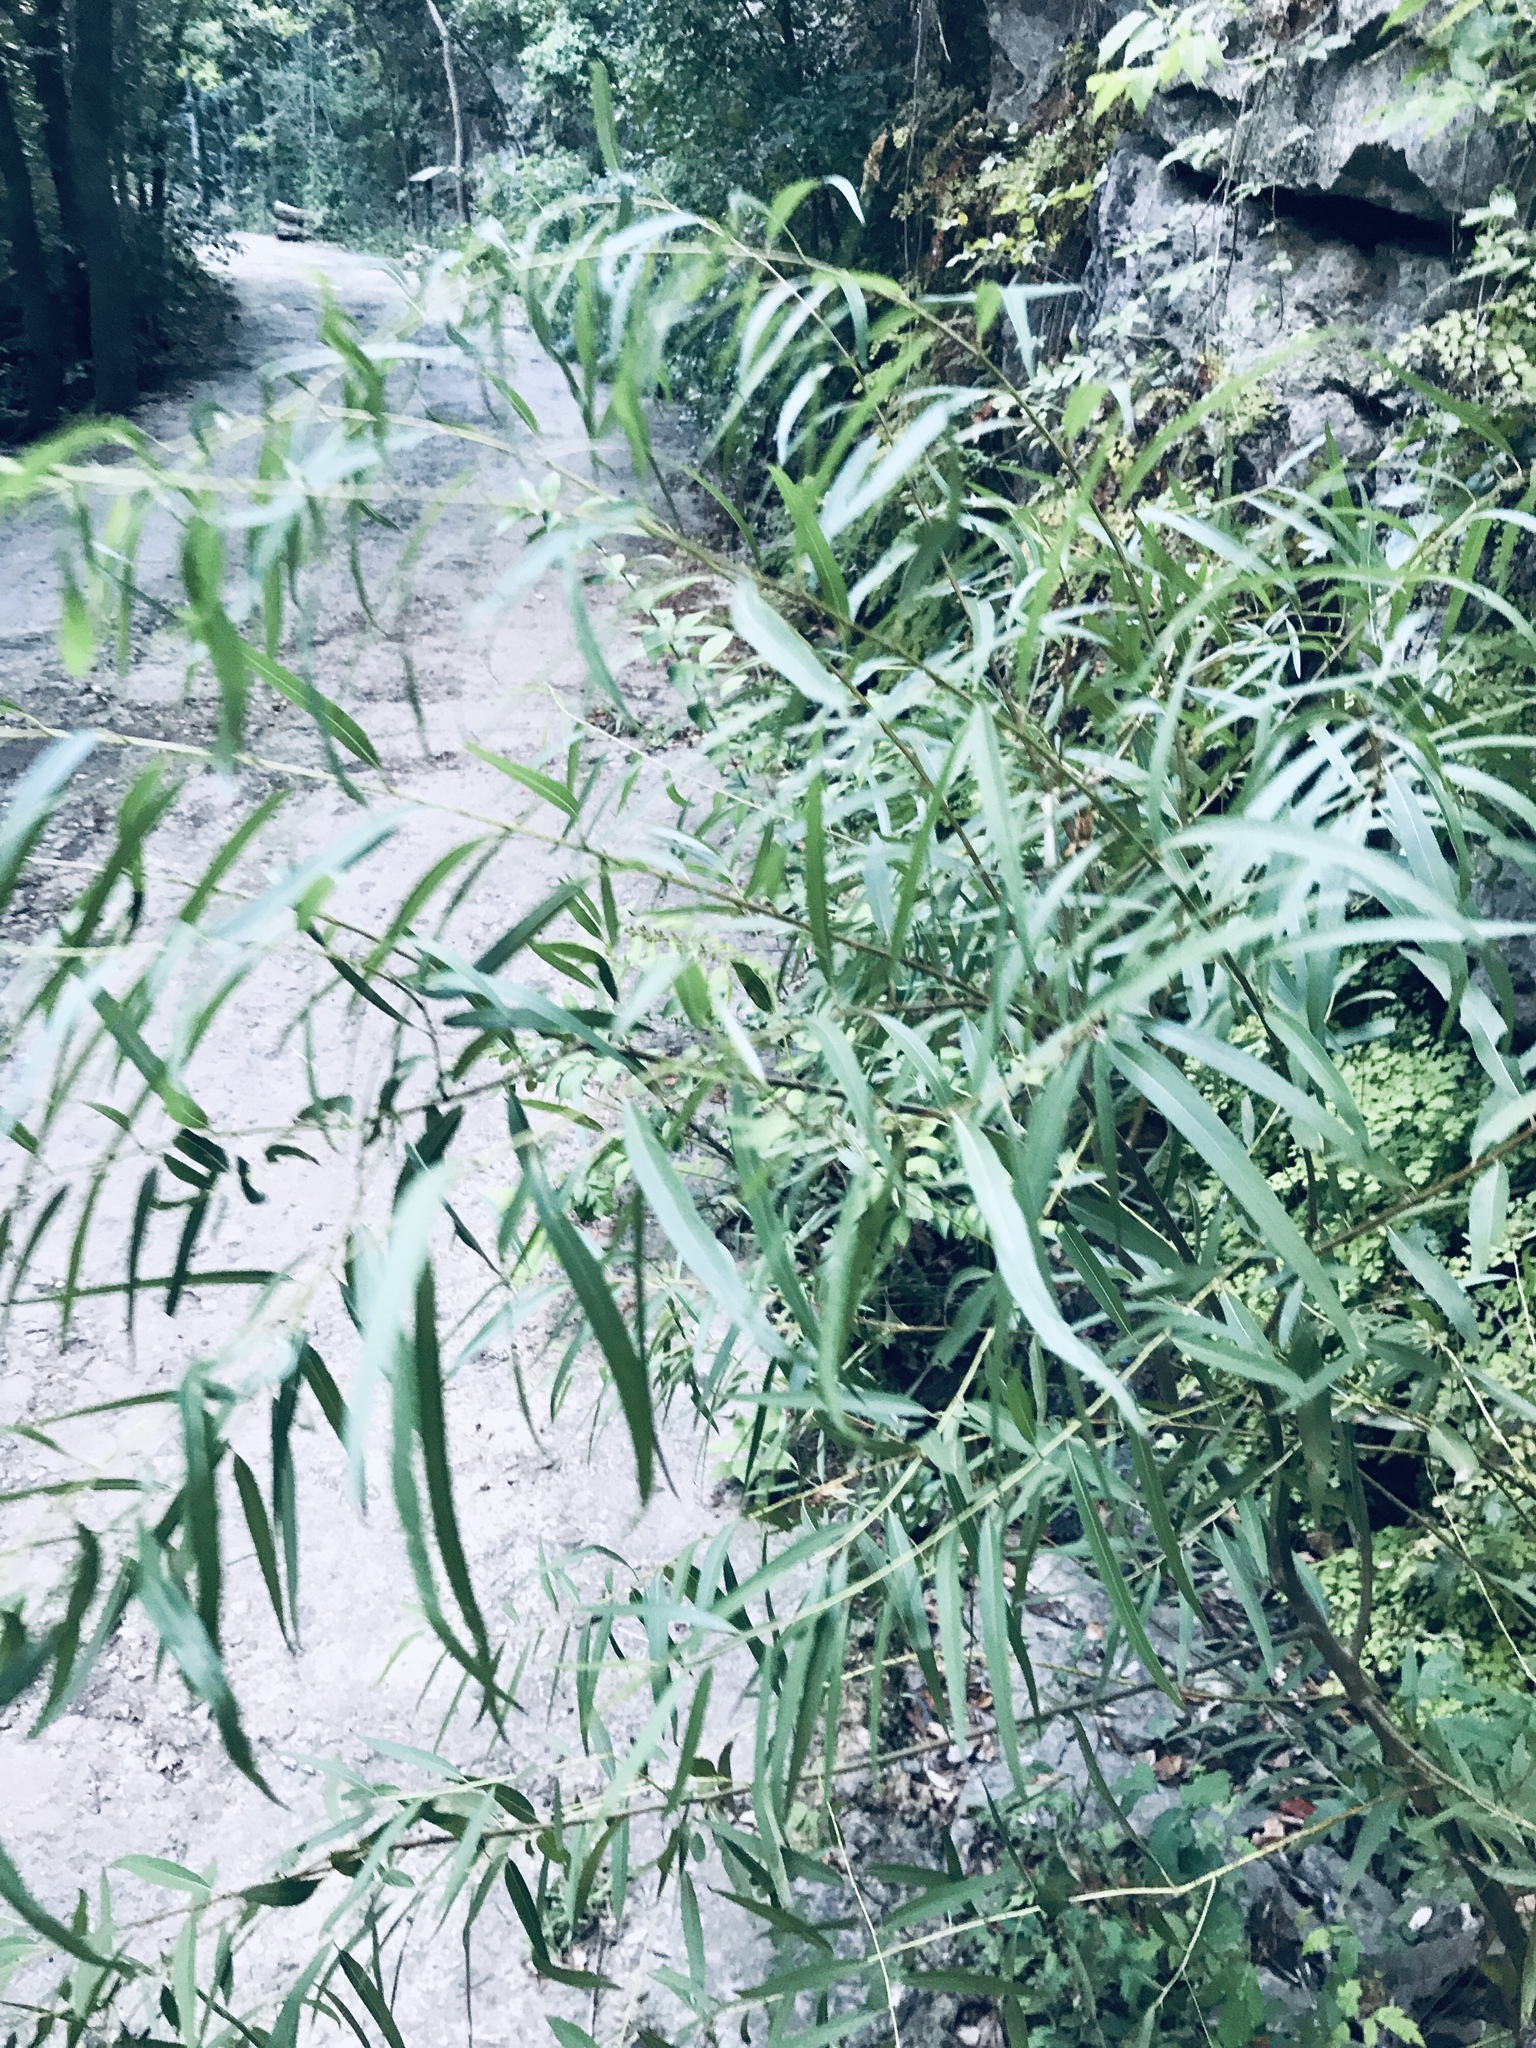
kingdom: Plantae
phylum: Tracheophyta
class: Magnoliopsida
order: Malpighiales
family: Salicaceae
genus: Salix
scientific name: Salix nigra
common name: Black willow
